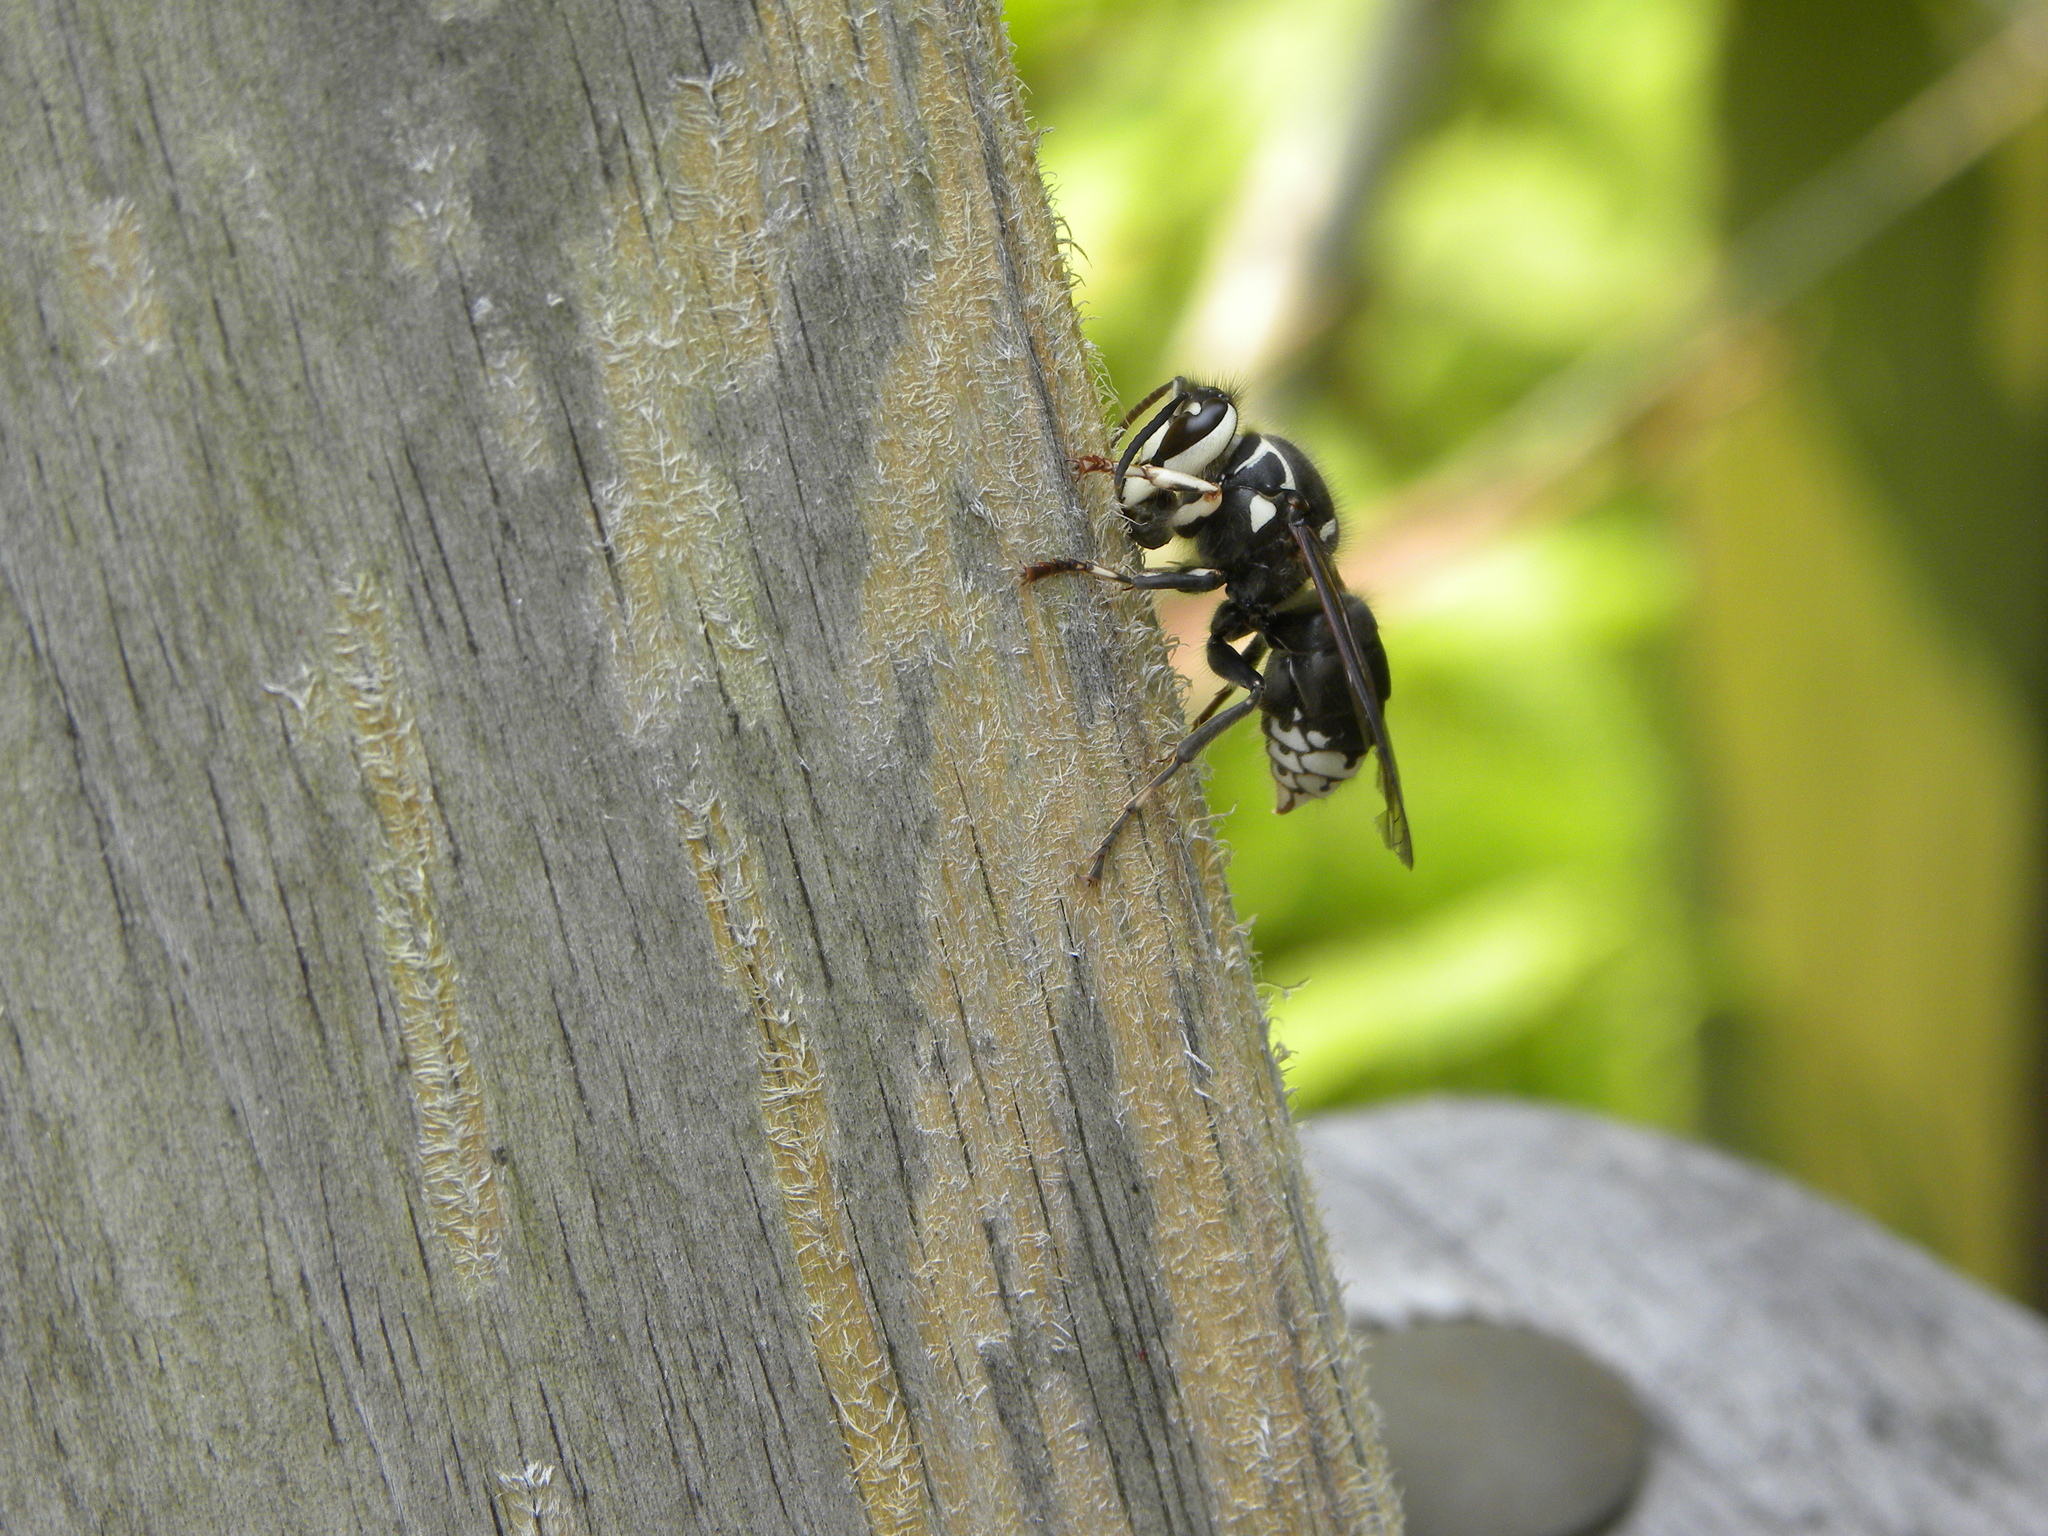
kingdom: Animalia
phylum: Arthropoda
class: Insecta
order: Hymenoptera
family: Vespidae
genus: Dolichovespula
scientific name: Dolichovespula maculata
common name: Bald-faced hornet
